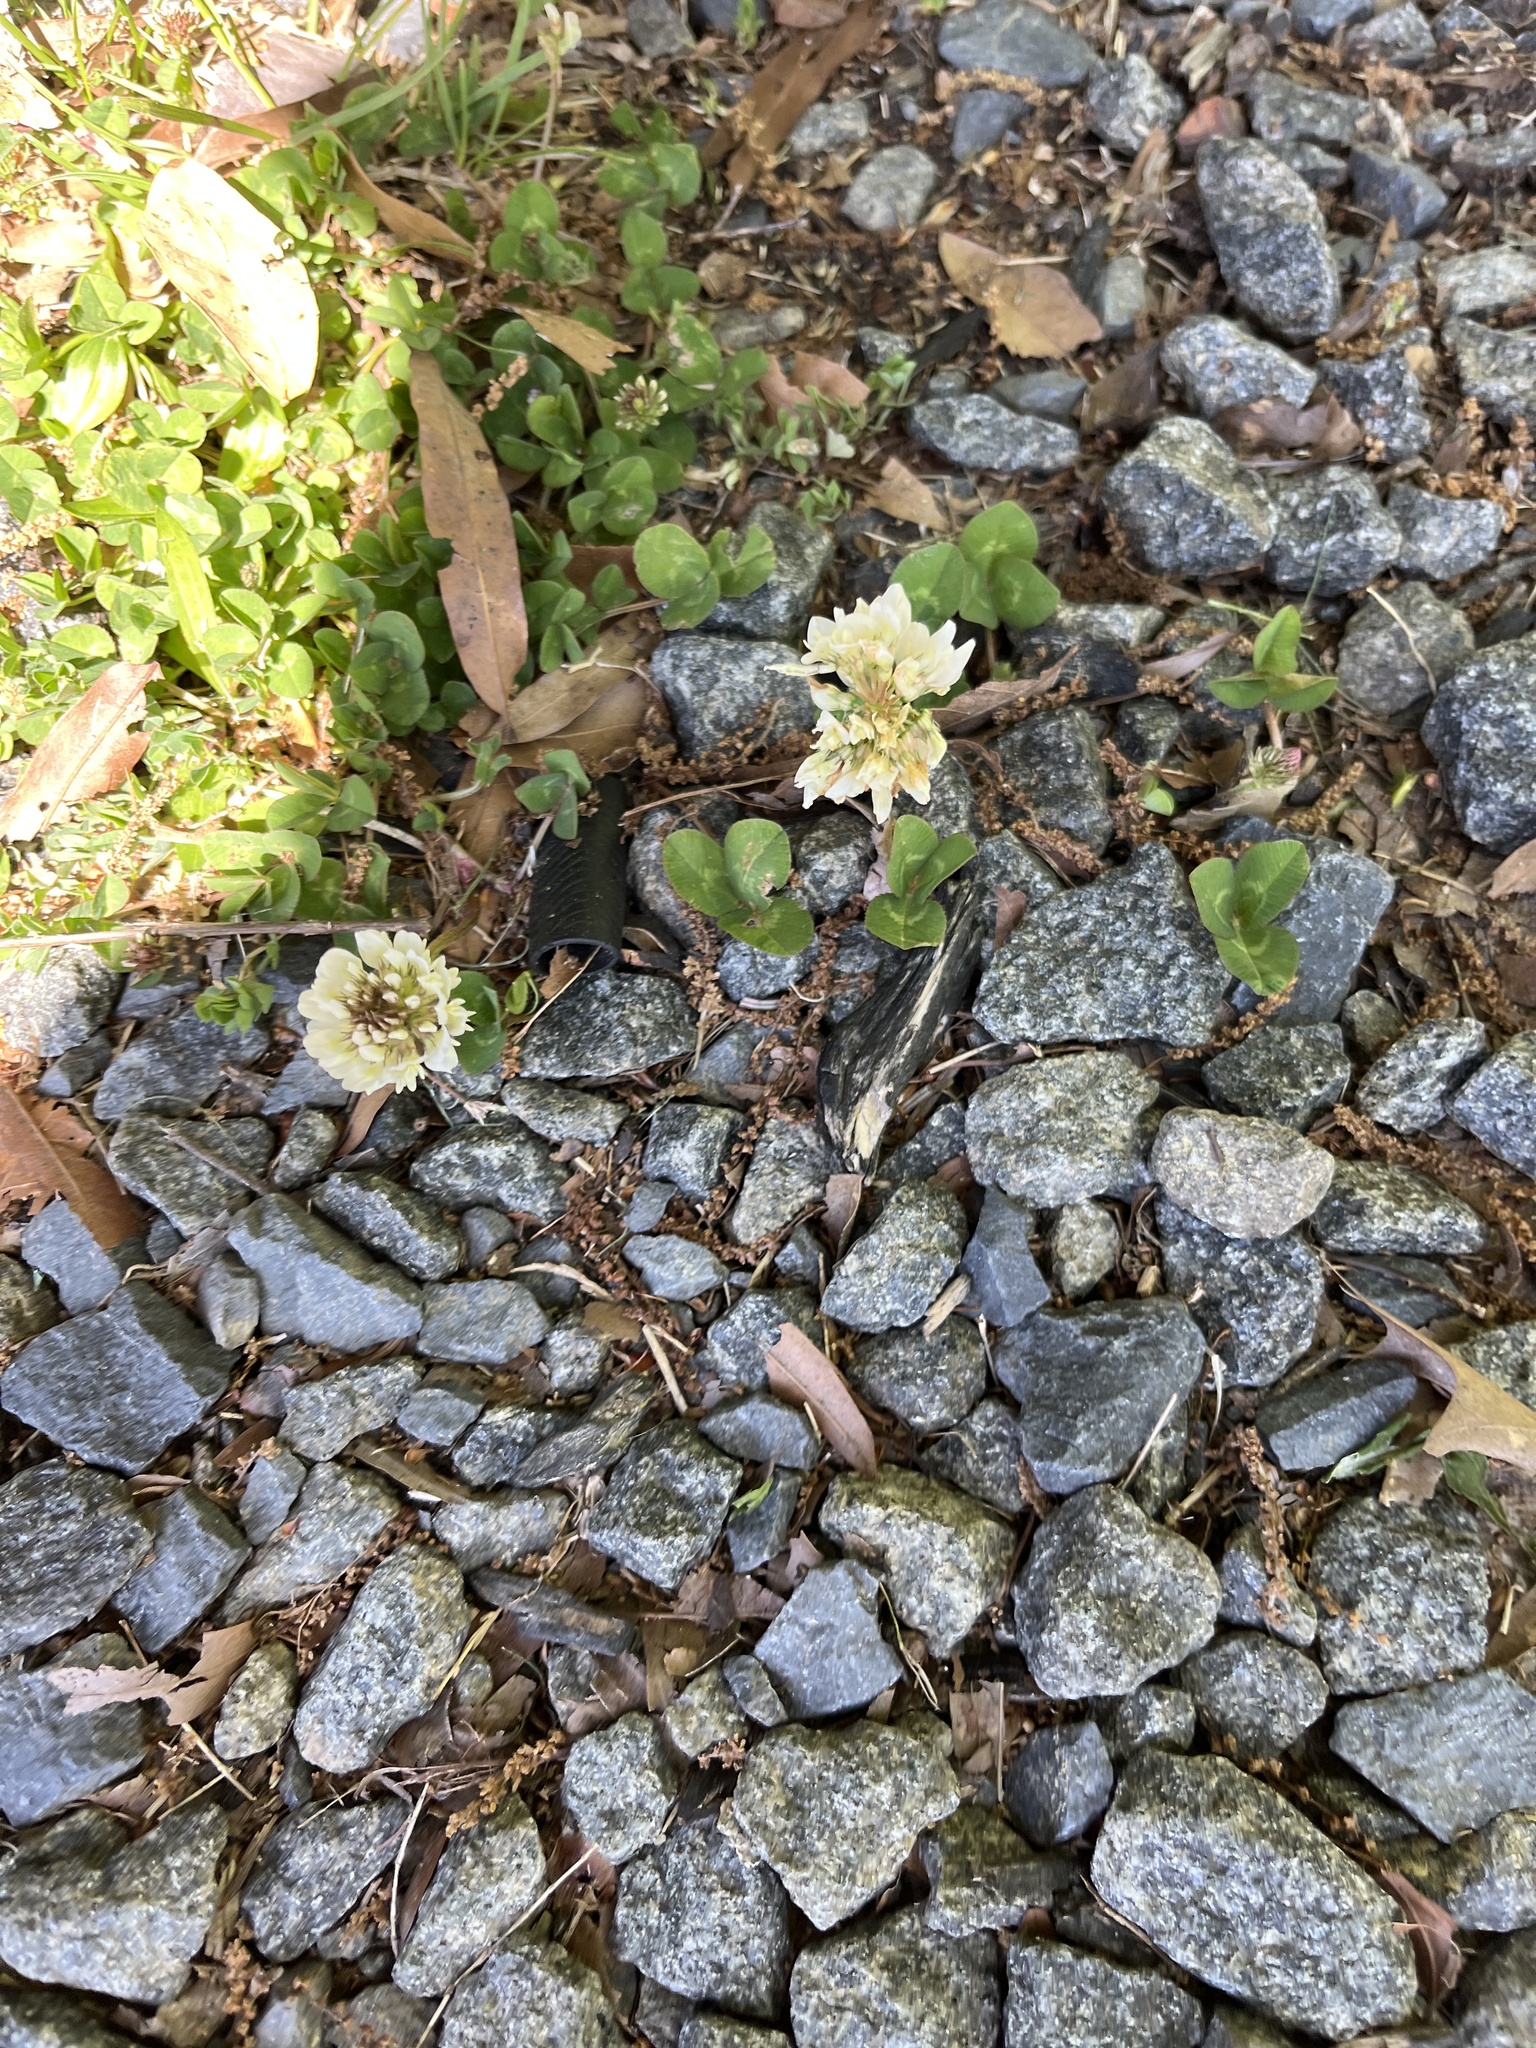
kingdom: Plantae
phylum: Tracheophyta
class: Magnoliopsida
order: Fabales
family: Fabaceae
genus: Trifolium
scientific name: Trifolium repens
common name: White clover
